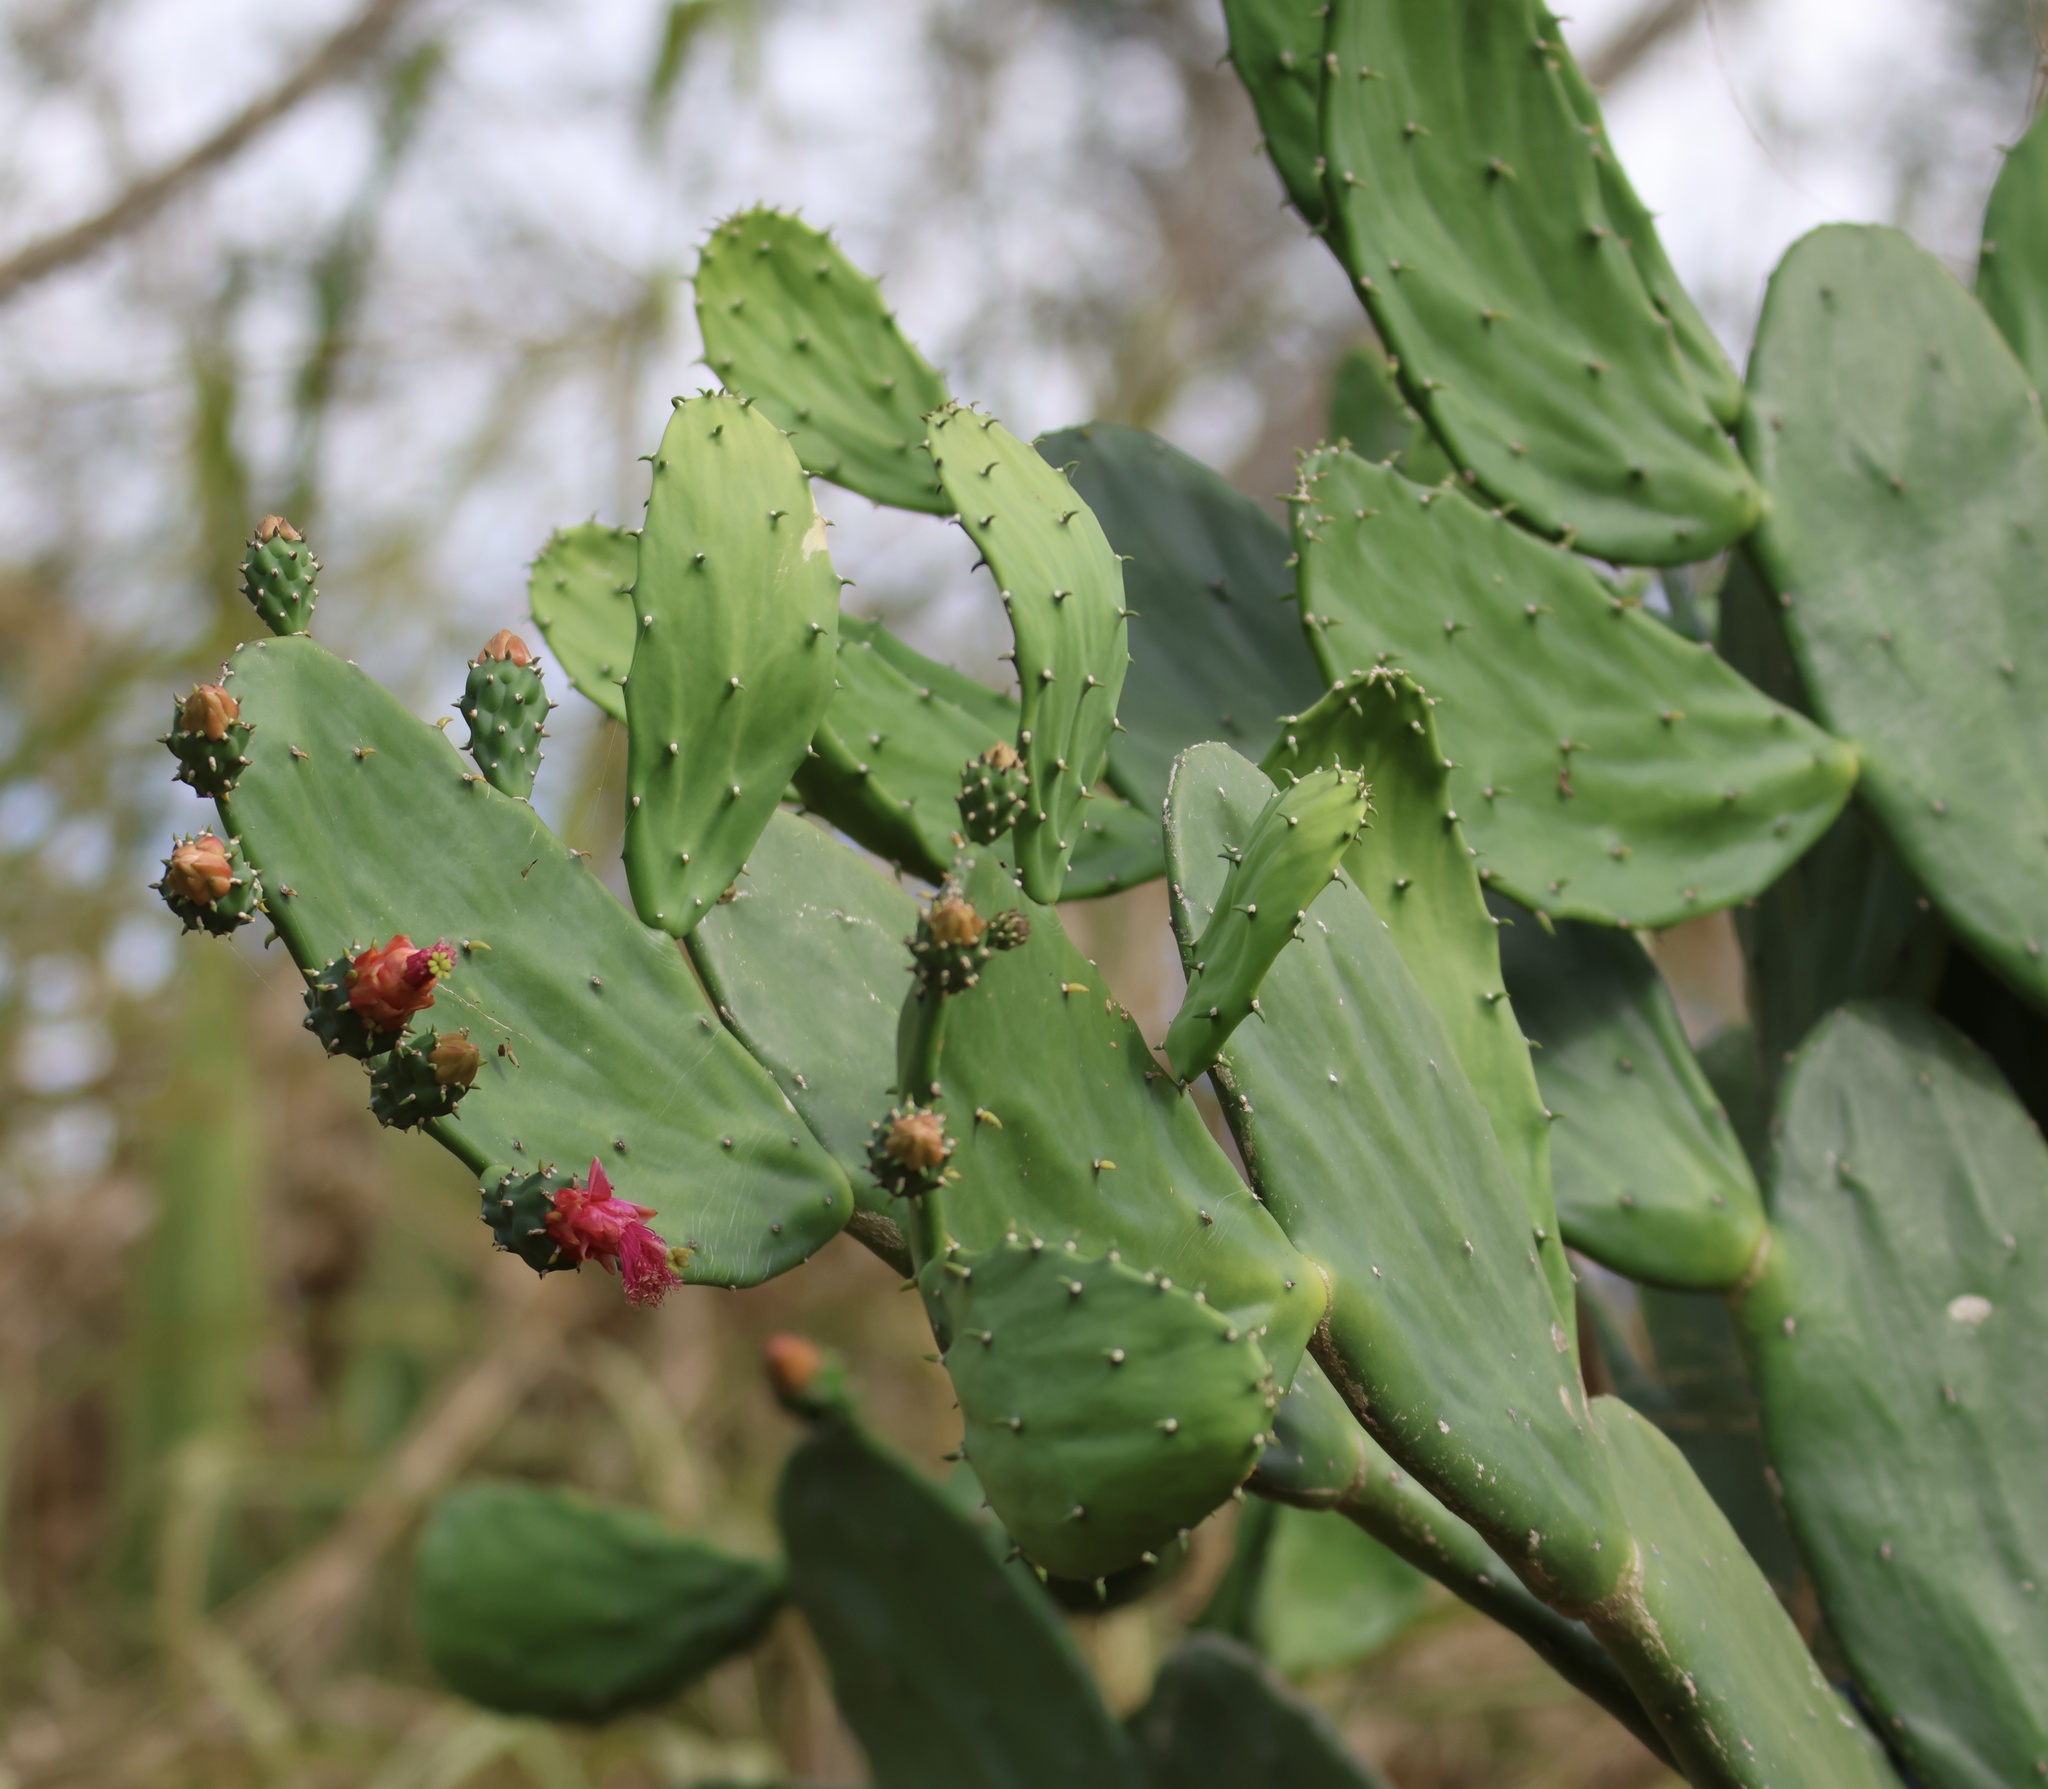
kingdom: Plantae
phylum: Tracheophyta
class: Magnoliopsida
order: Caryophyllales
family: Cactaceae
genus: Opuntia
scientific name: Opuntia cochenillifera
